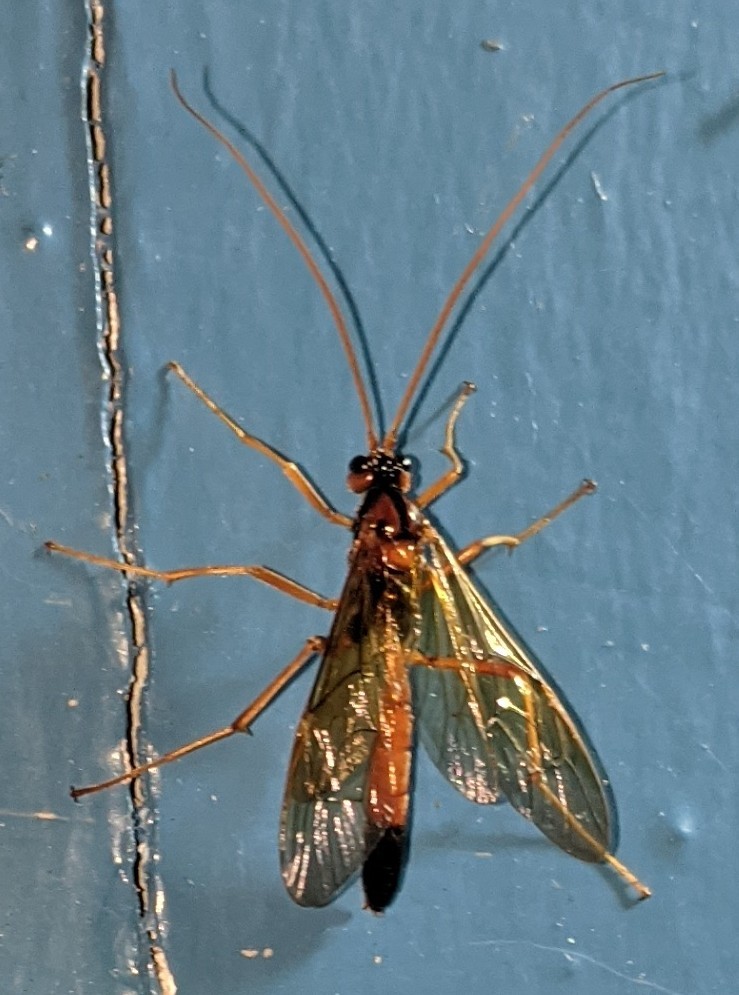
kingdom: Animalia
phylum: Arthropoda
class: Insecta
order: Hymenoptera
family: Ichneumonidae
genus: Opheltes
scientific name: Opheltes glaucopterus
